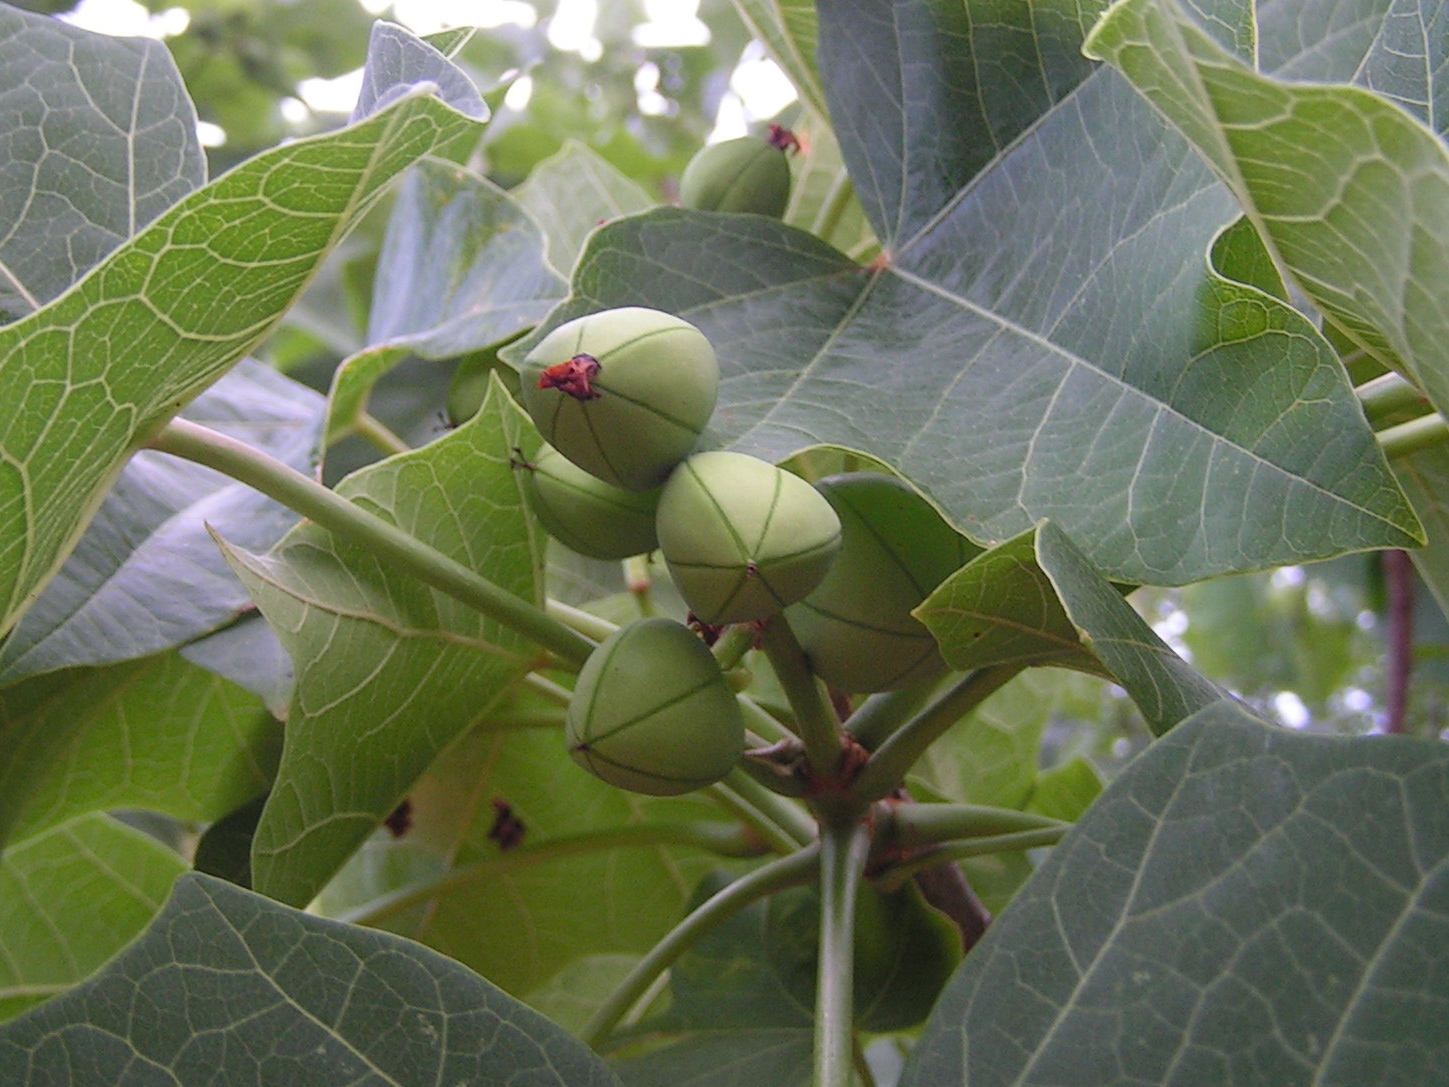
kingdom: Plantae
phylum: Tracheophyta
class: Magnoliopsida
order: Malpighiales
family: Euphorbiaceae
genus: Jatropha
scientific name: Jatropha curcas
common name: Barbados nut
